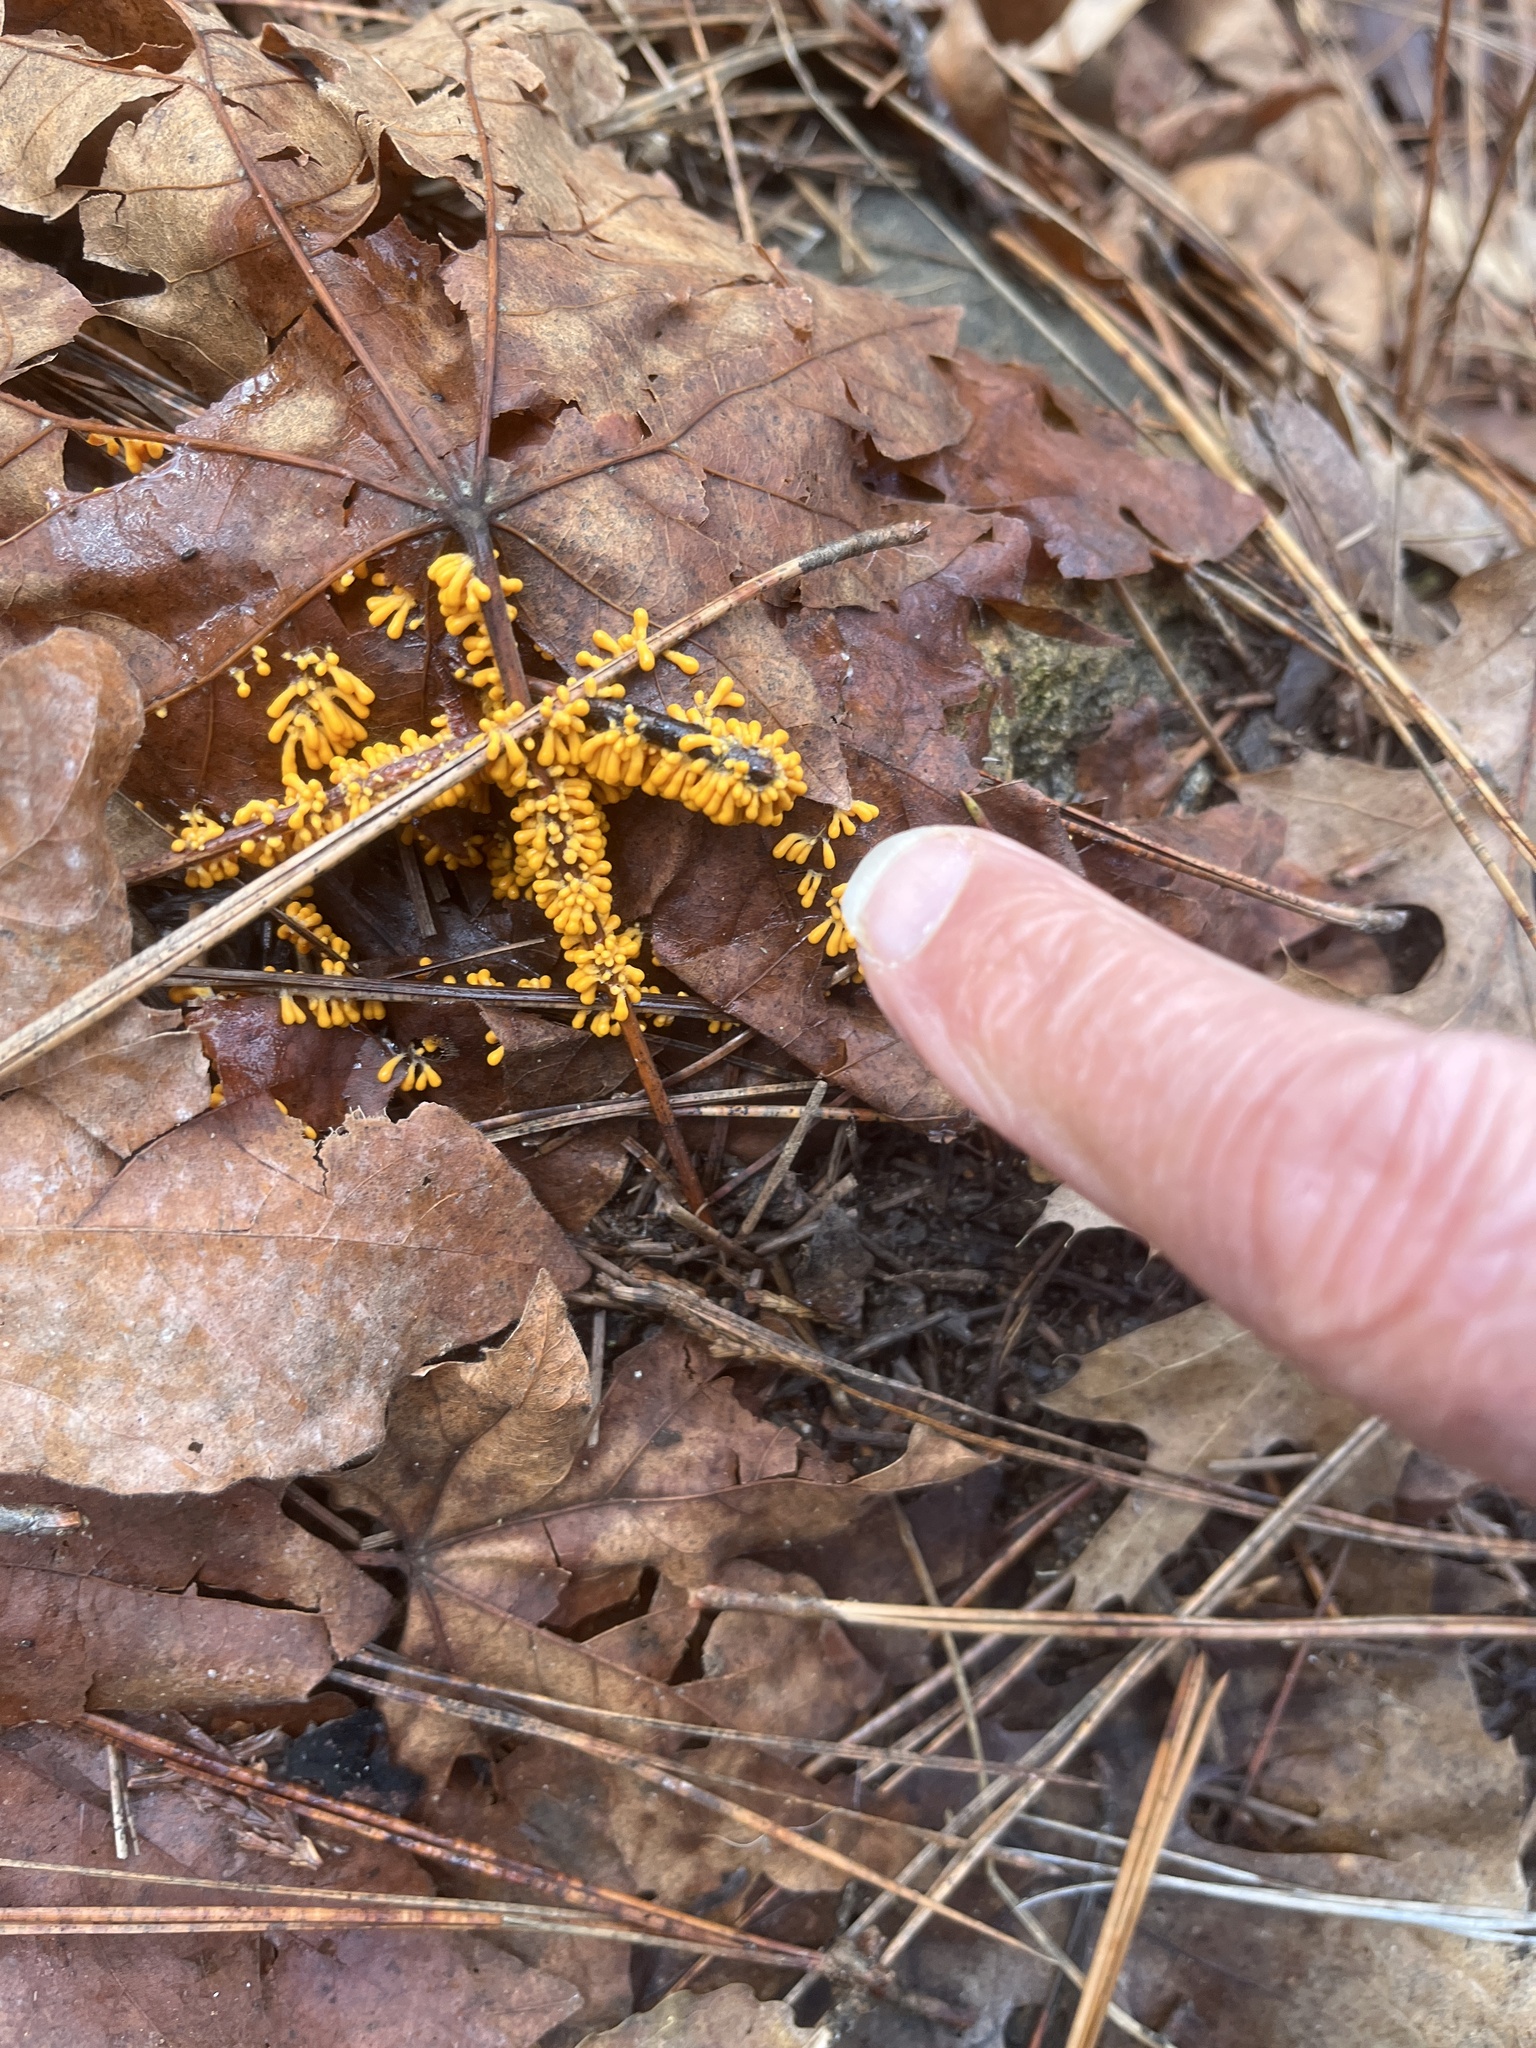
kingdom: Protozoa
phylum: Mycetozoa
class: Myxomycetes
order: Physarales
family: Physaraceae
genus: Leocarpus
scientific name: Leocarpus fragilis
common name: Insect-egg slime
